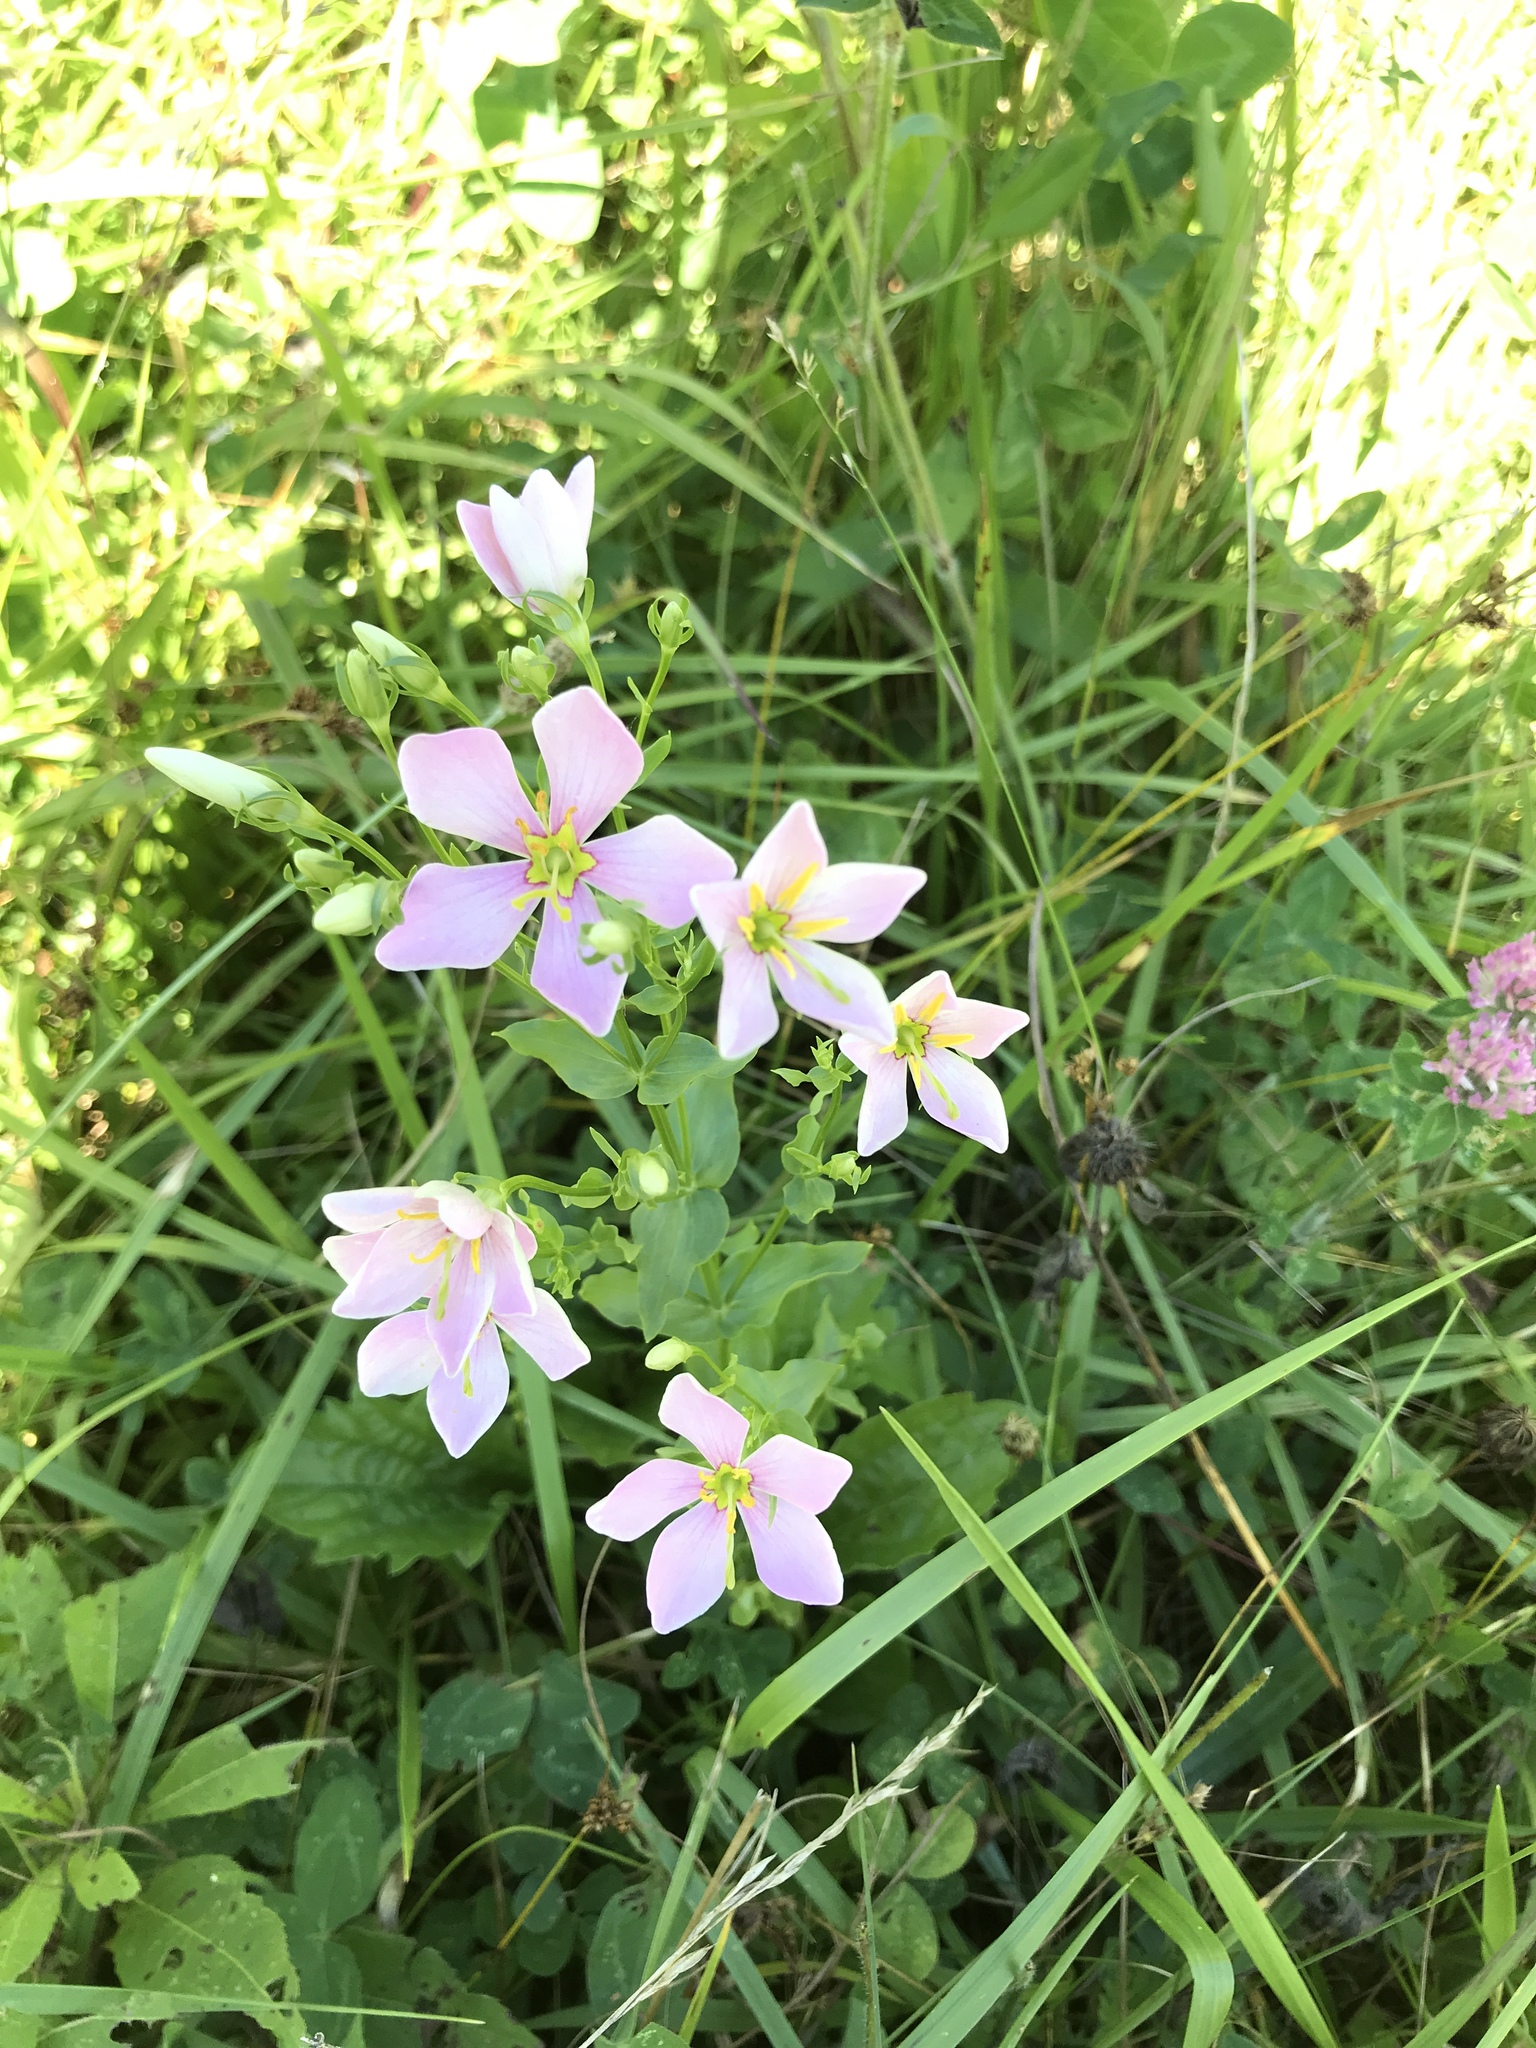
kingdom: Plantae
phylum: Tracheophyta
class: Magnoliopsida
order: Gentianales
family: Gentianaceae
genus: Sabatia
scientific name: Sabatia angularis
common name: Rose-pink
